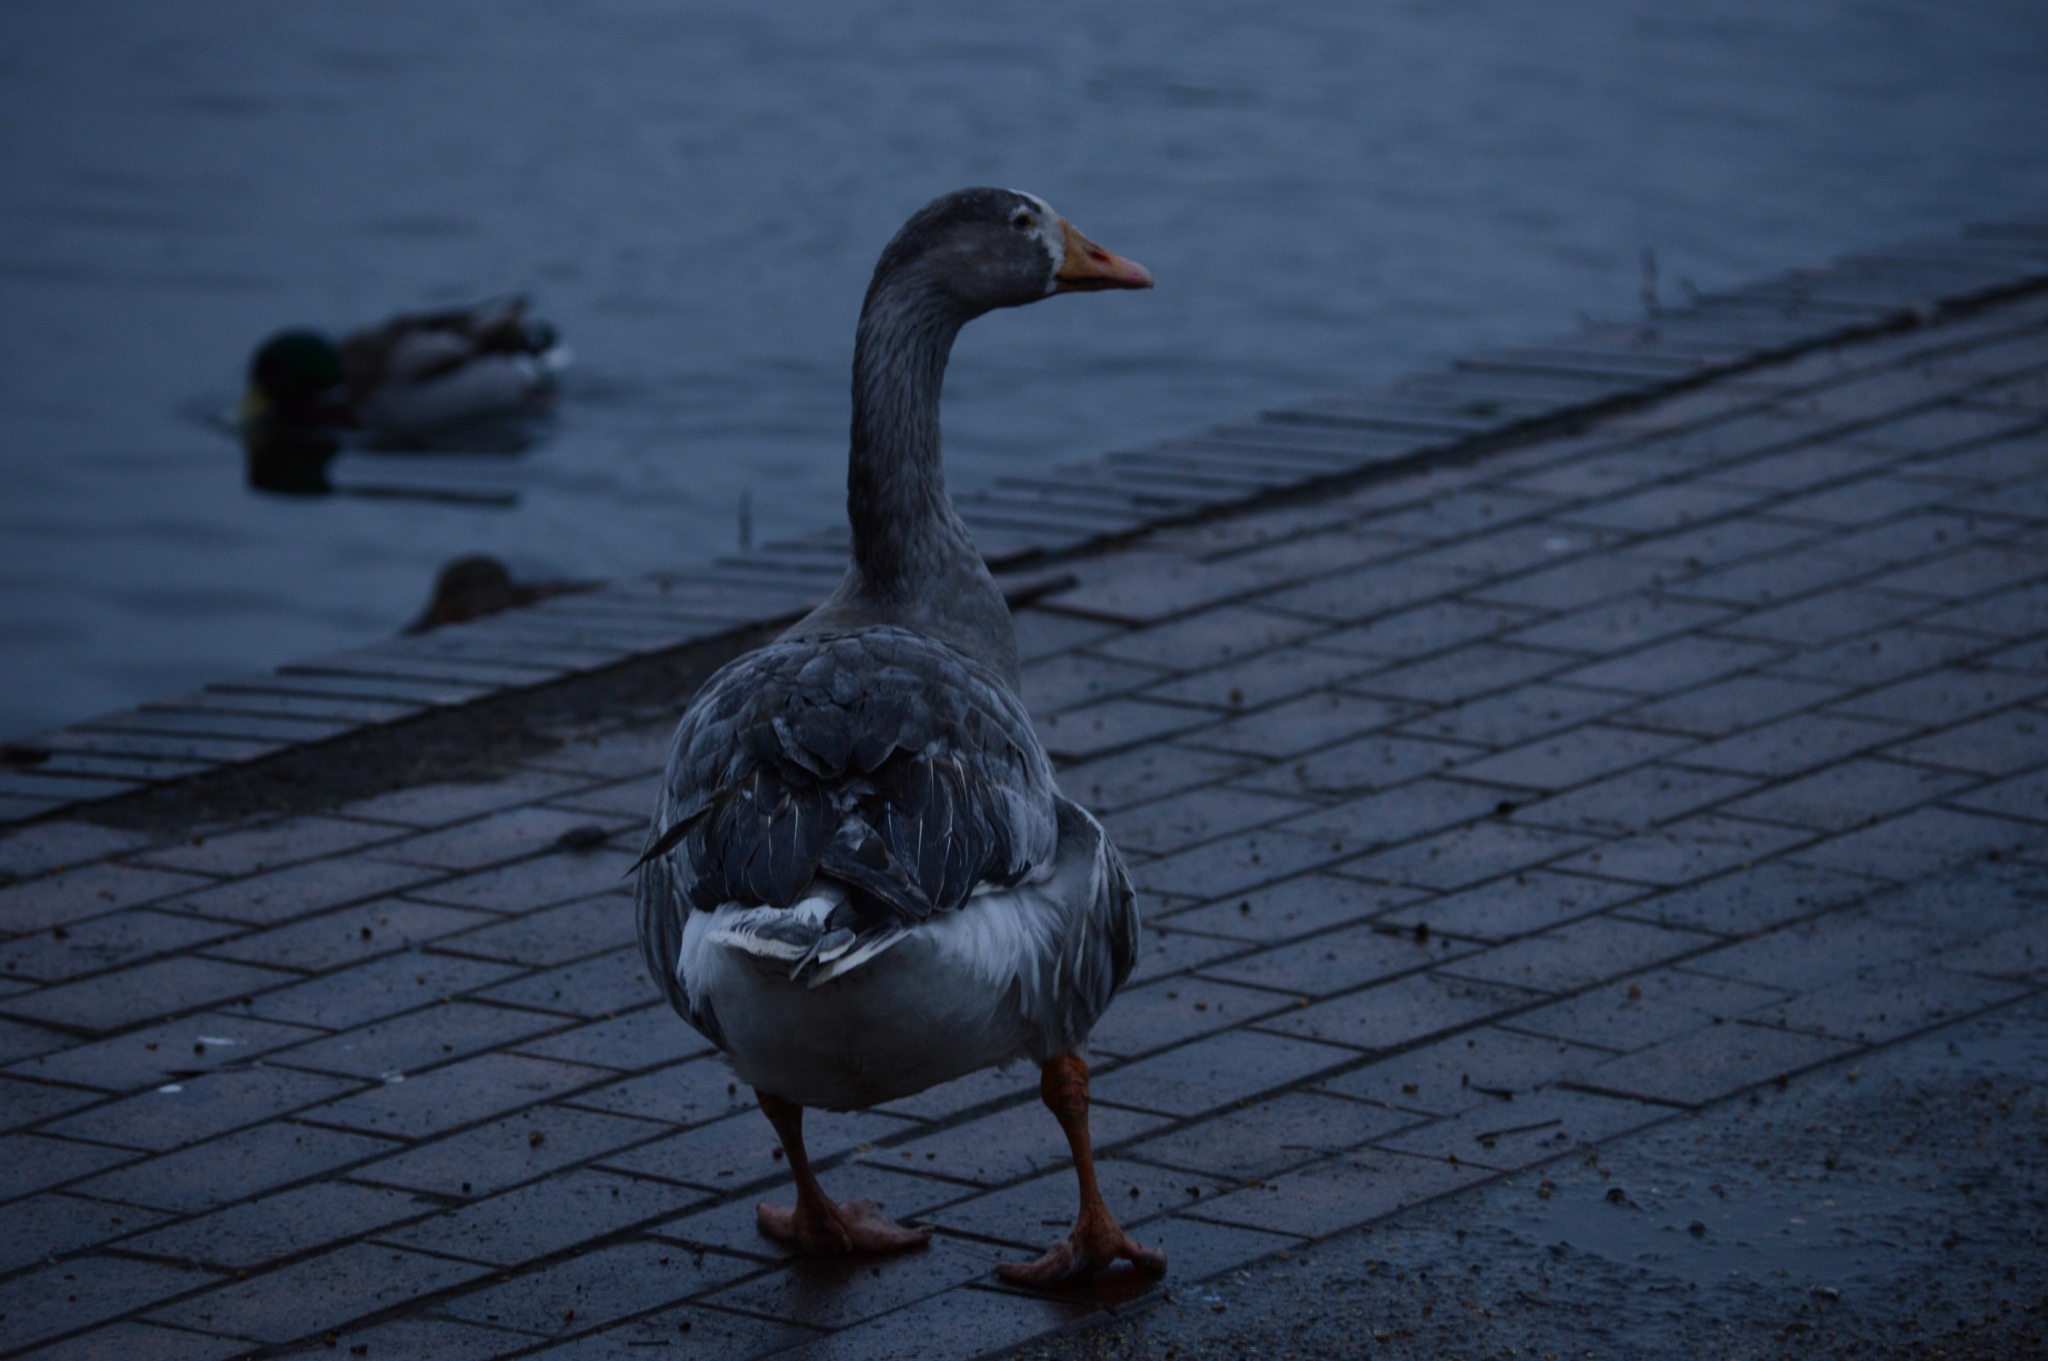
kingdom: Animalia
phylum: Chordata
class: Aves
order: Anseriformes
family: Anatidae
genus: Anser
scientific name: Anser anser
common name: Greylag goose
